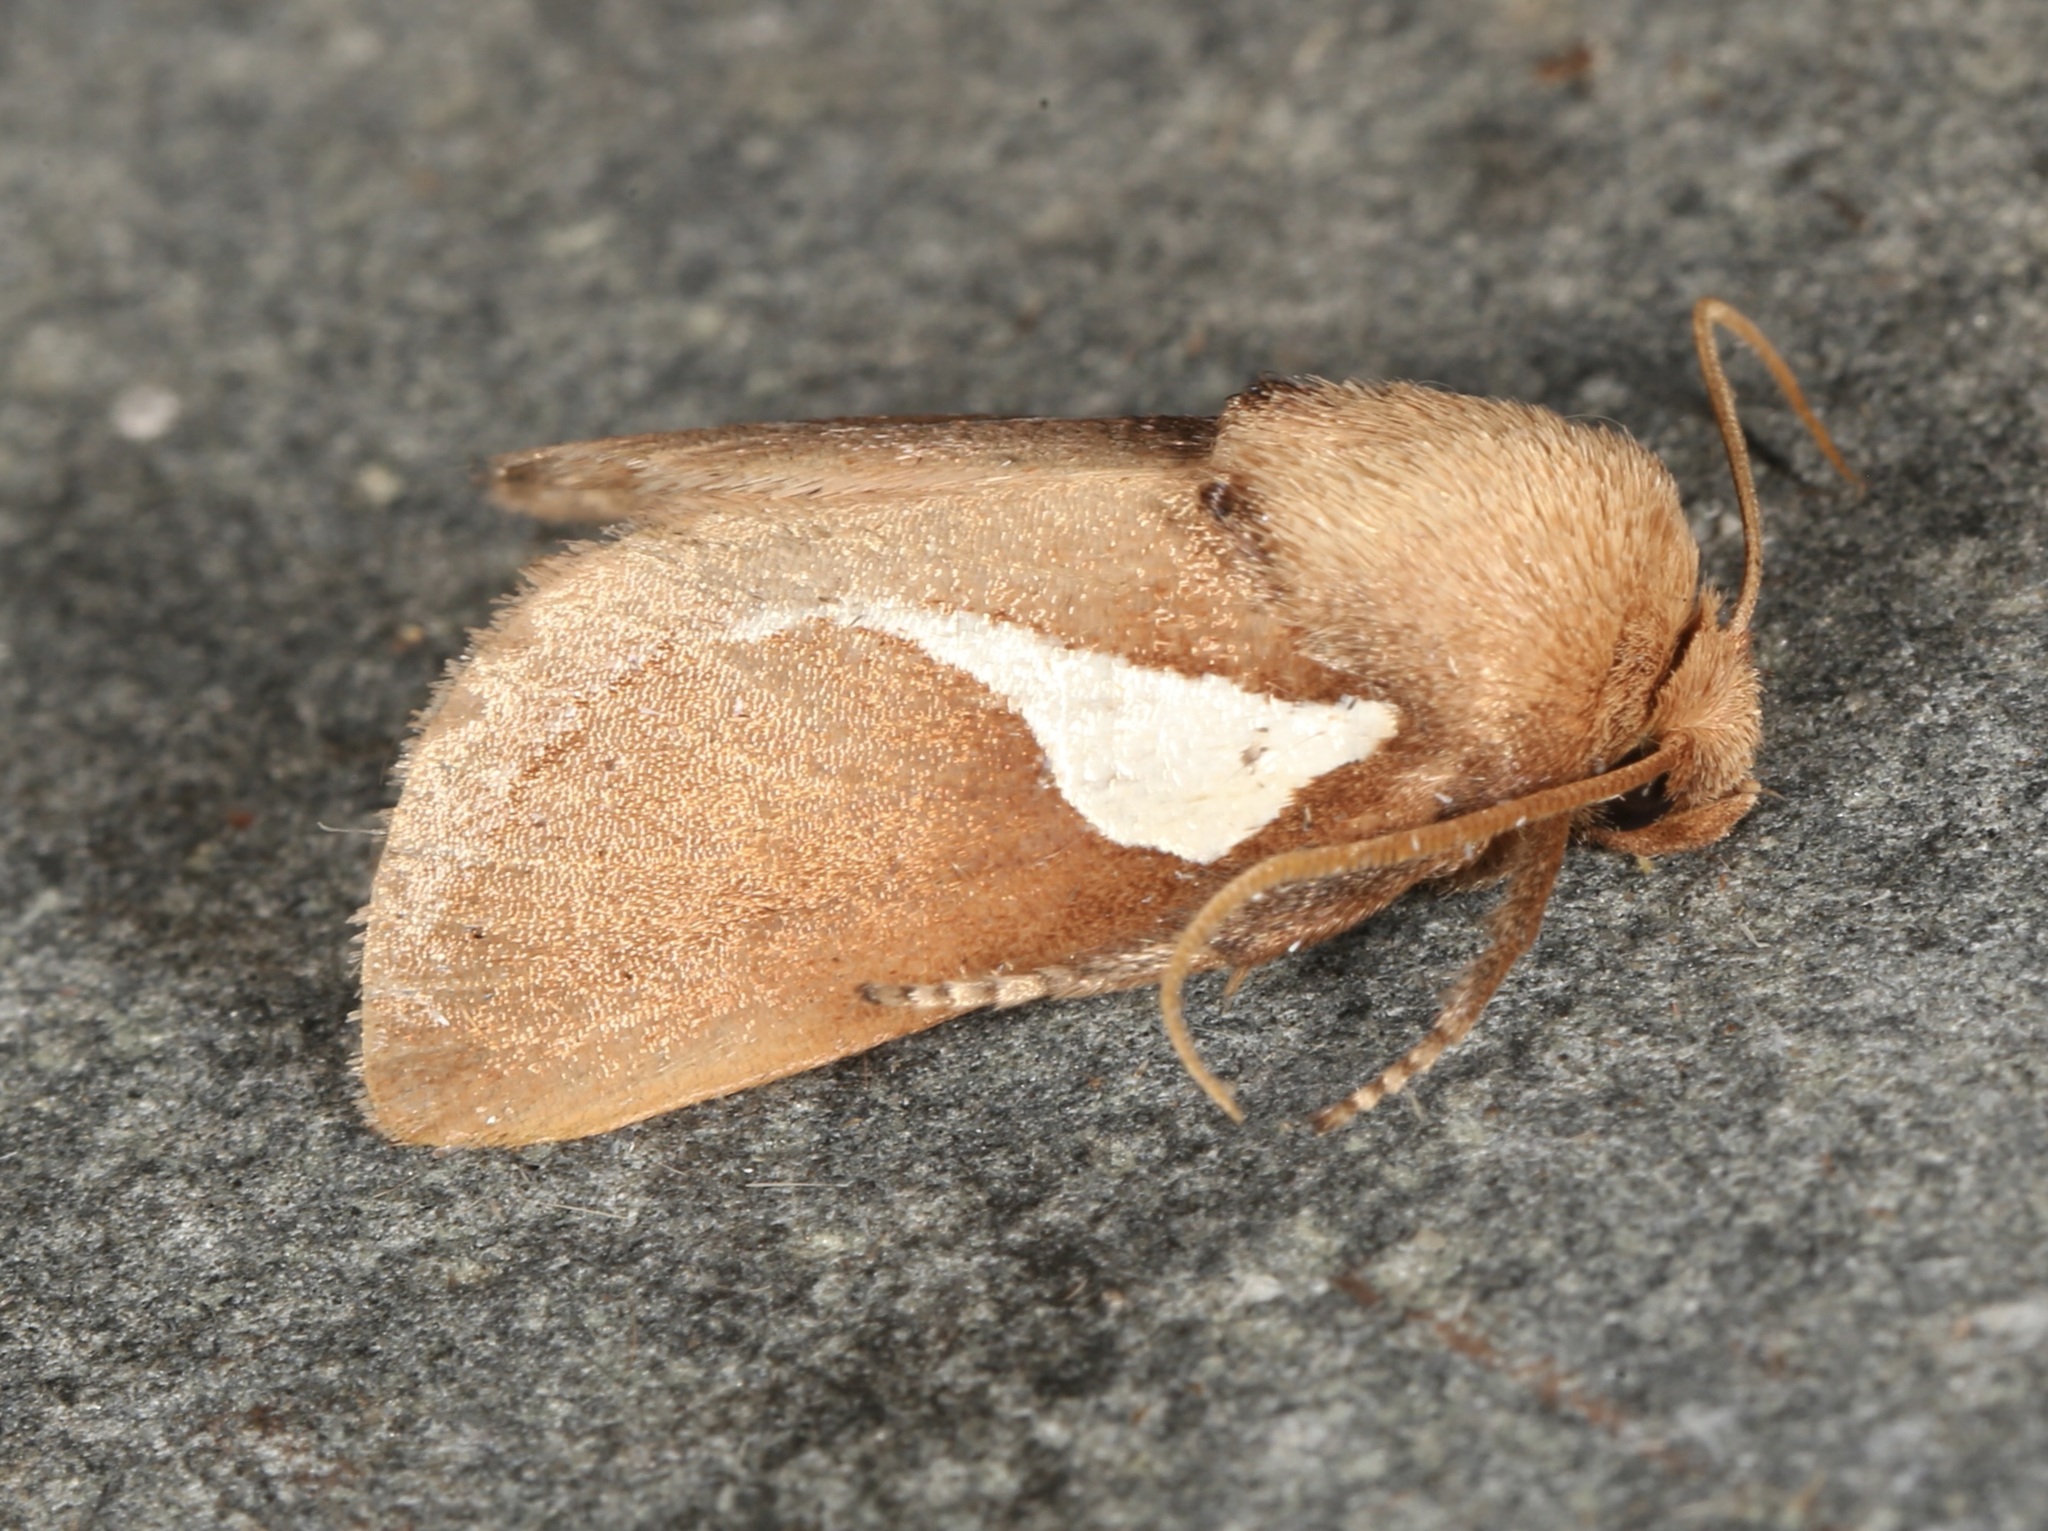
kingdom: Animalia
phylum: Arthropoda
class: Insecta
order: Lepidoptera
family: Limacodidae
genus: Prolimacodes
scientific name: Prolimacodes trigona
